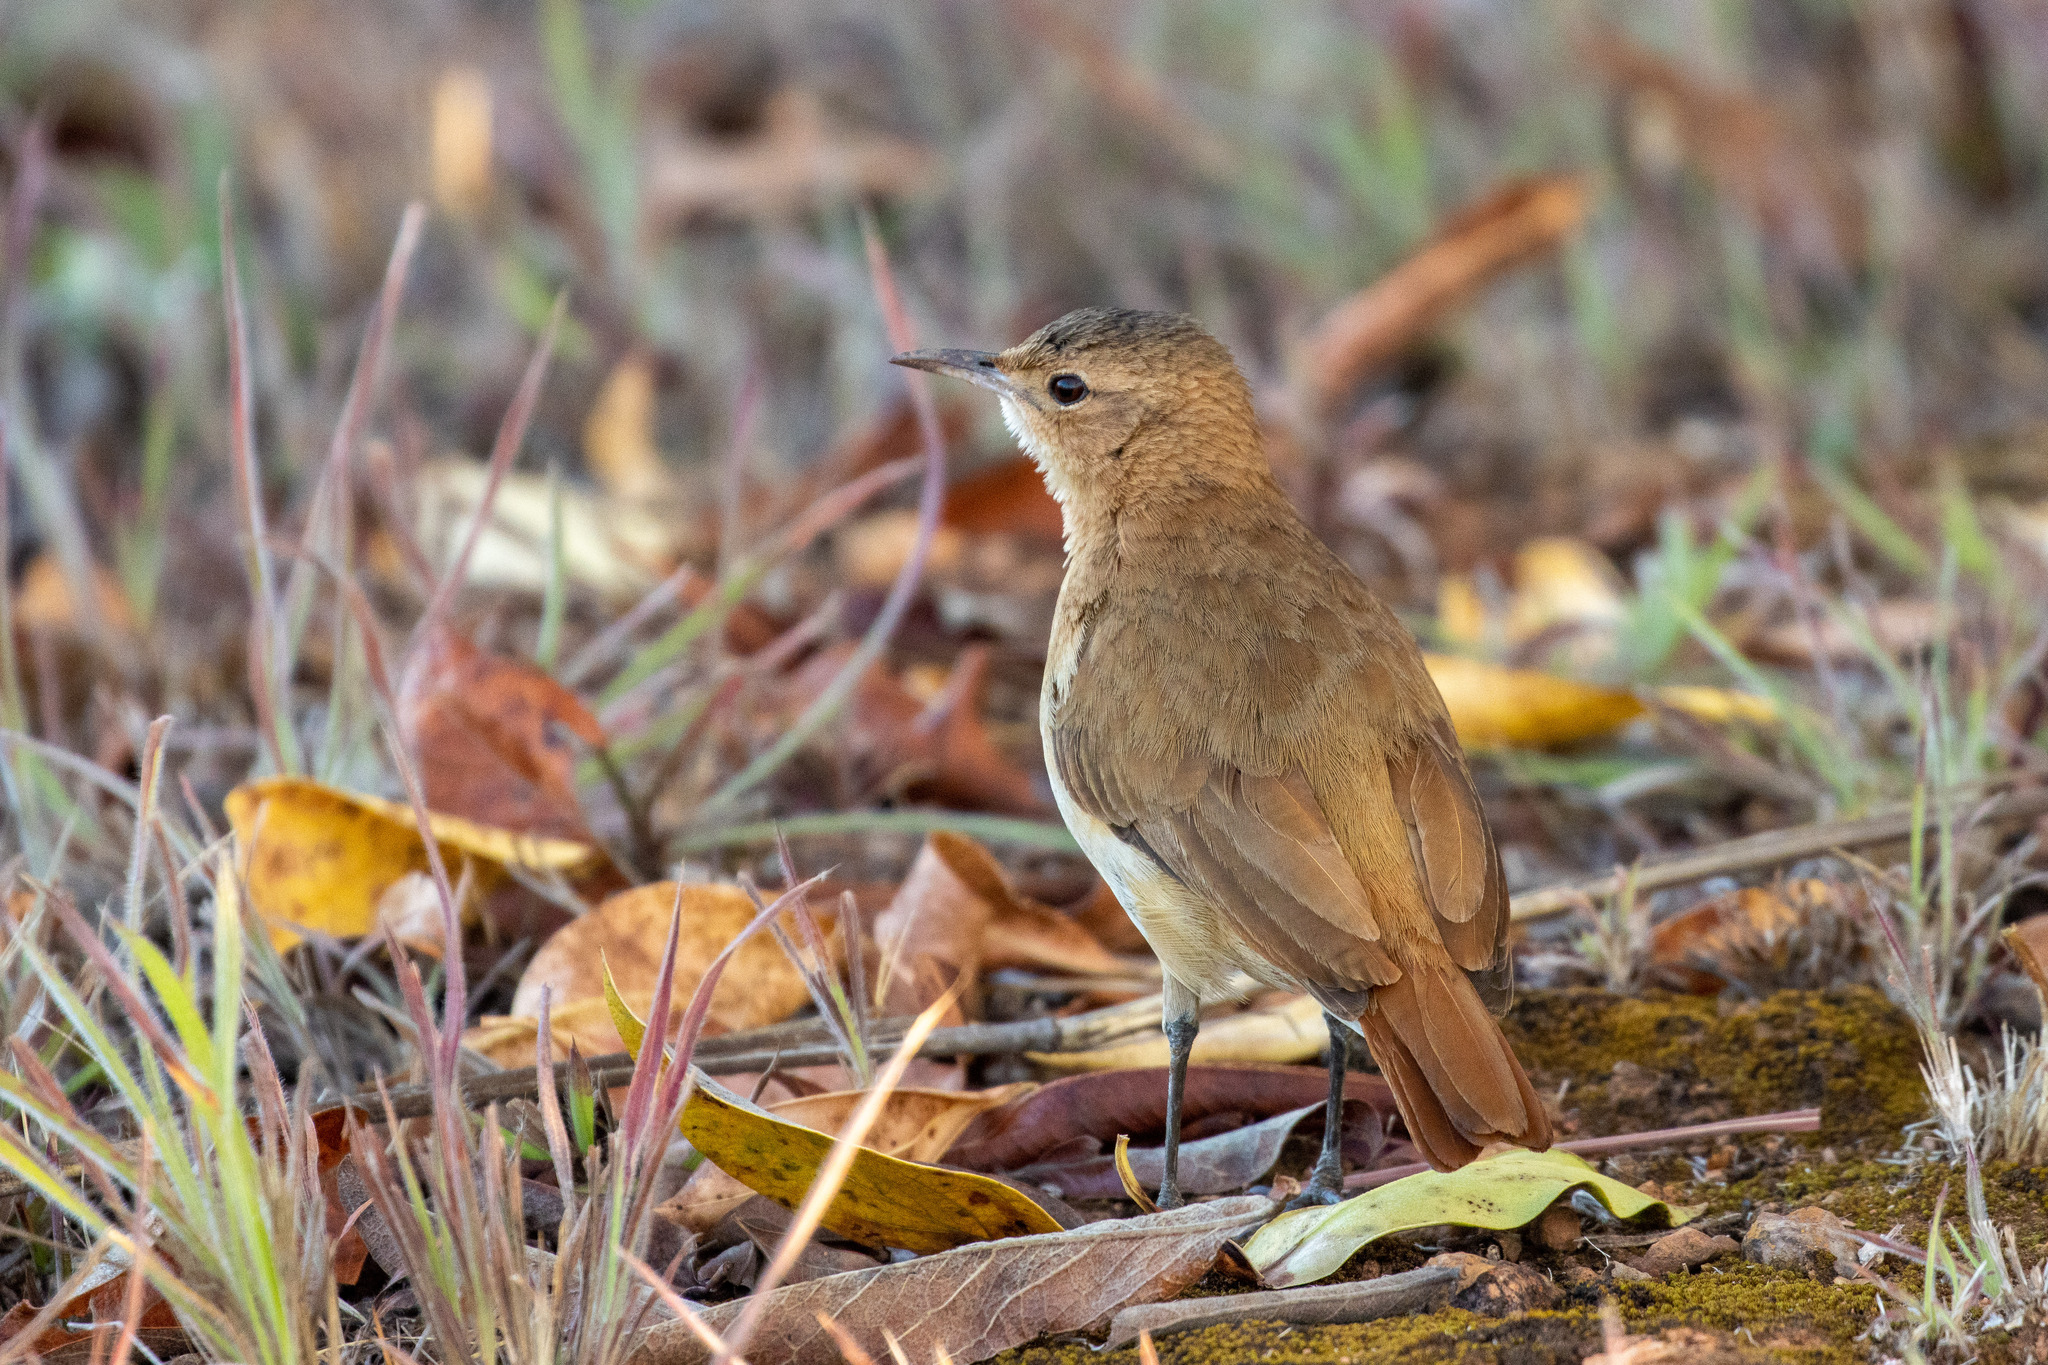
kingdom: Animalia
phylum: Chordata
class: Aves
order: Passeriformes
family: Furnariidae
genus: Furnarius
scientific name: Furnarius rufus
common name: Rufous hornero
